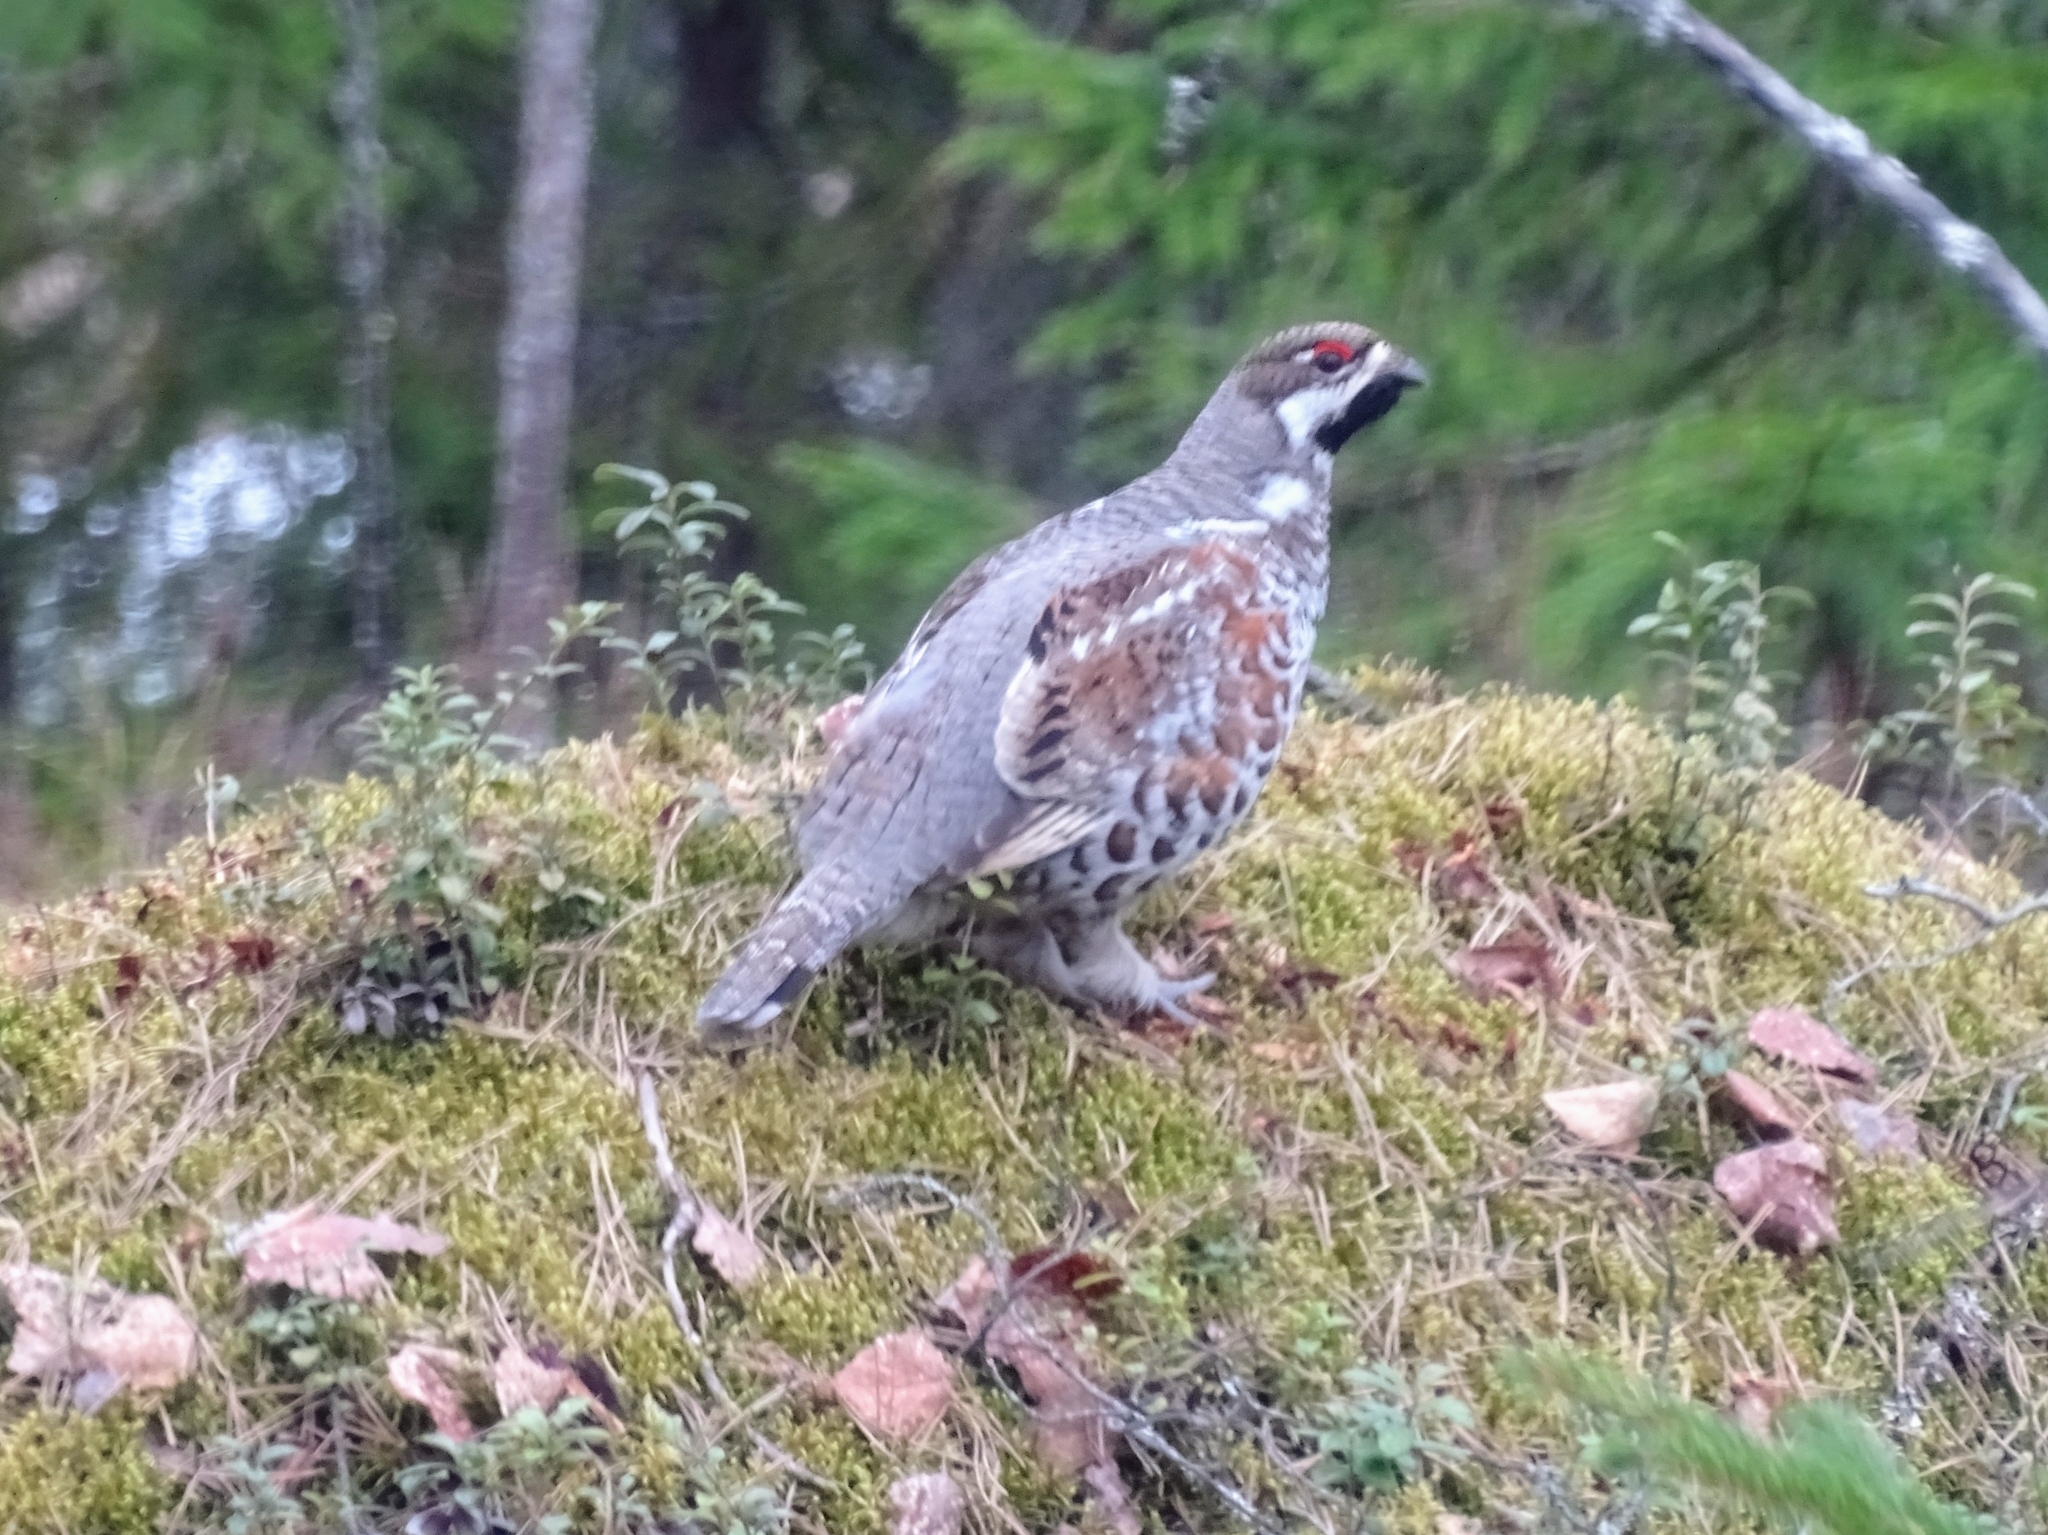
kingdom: Animalia
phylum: Chordata
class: Aves
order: Galliformes
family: Phasianidae
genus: Tetrastes
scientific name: Tetrastes bonasia
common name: Hazel grouse
